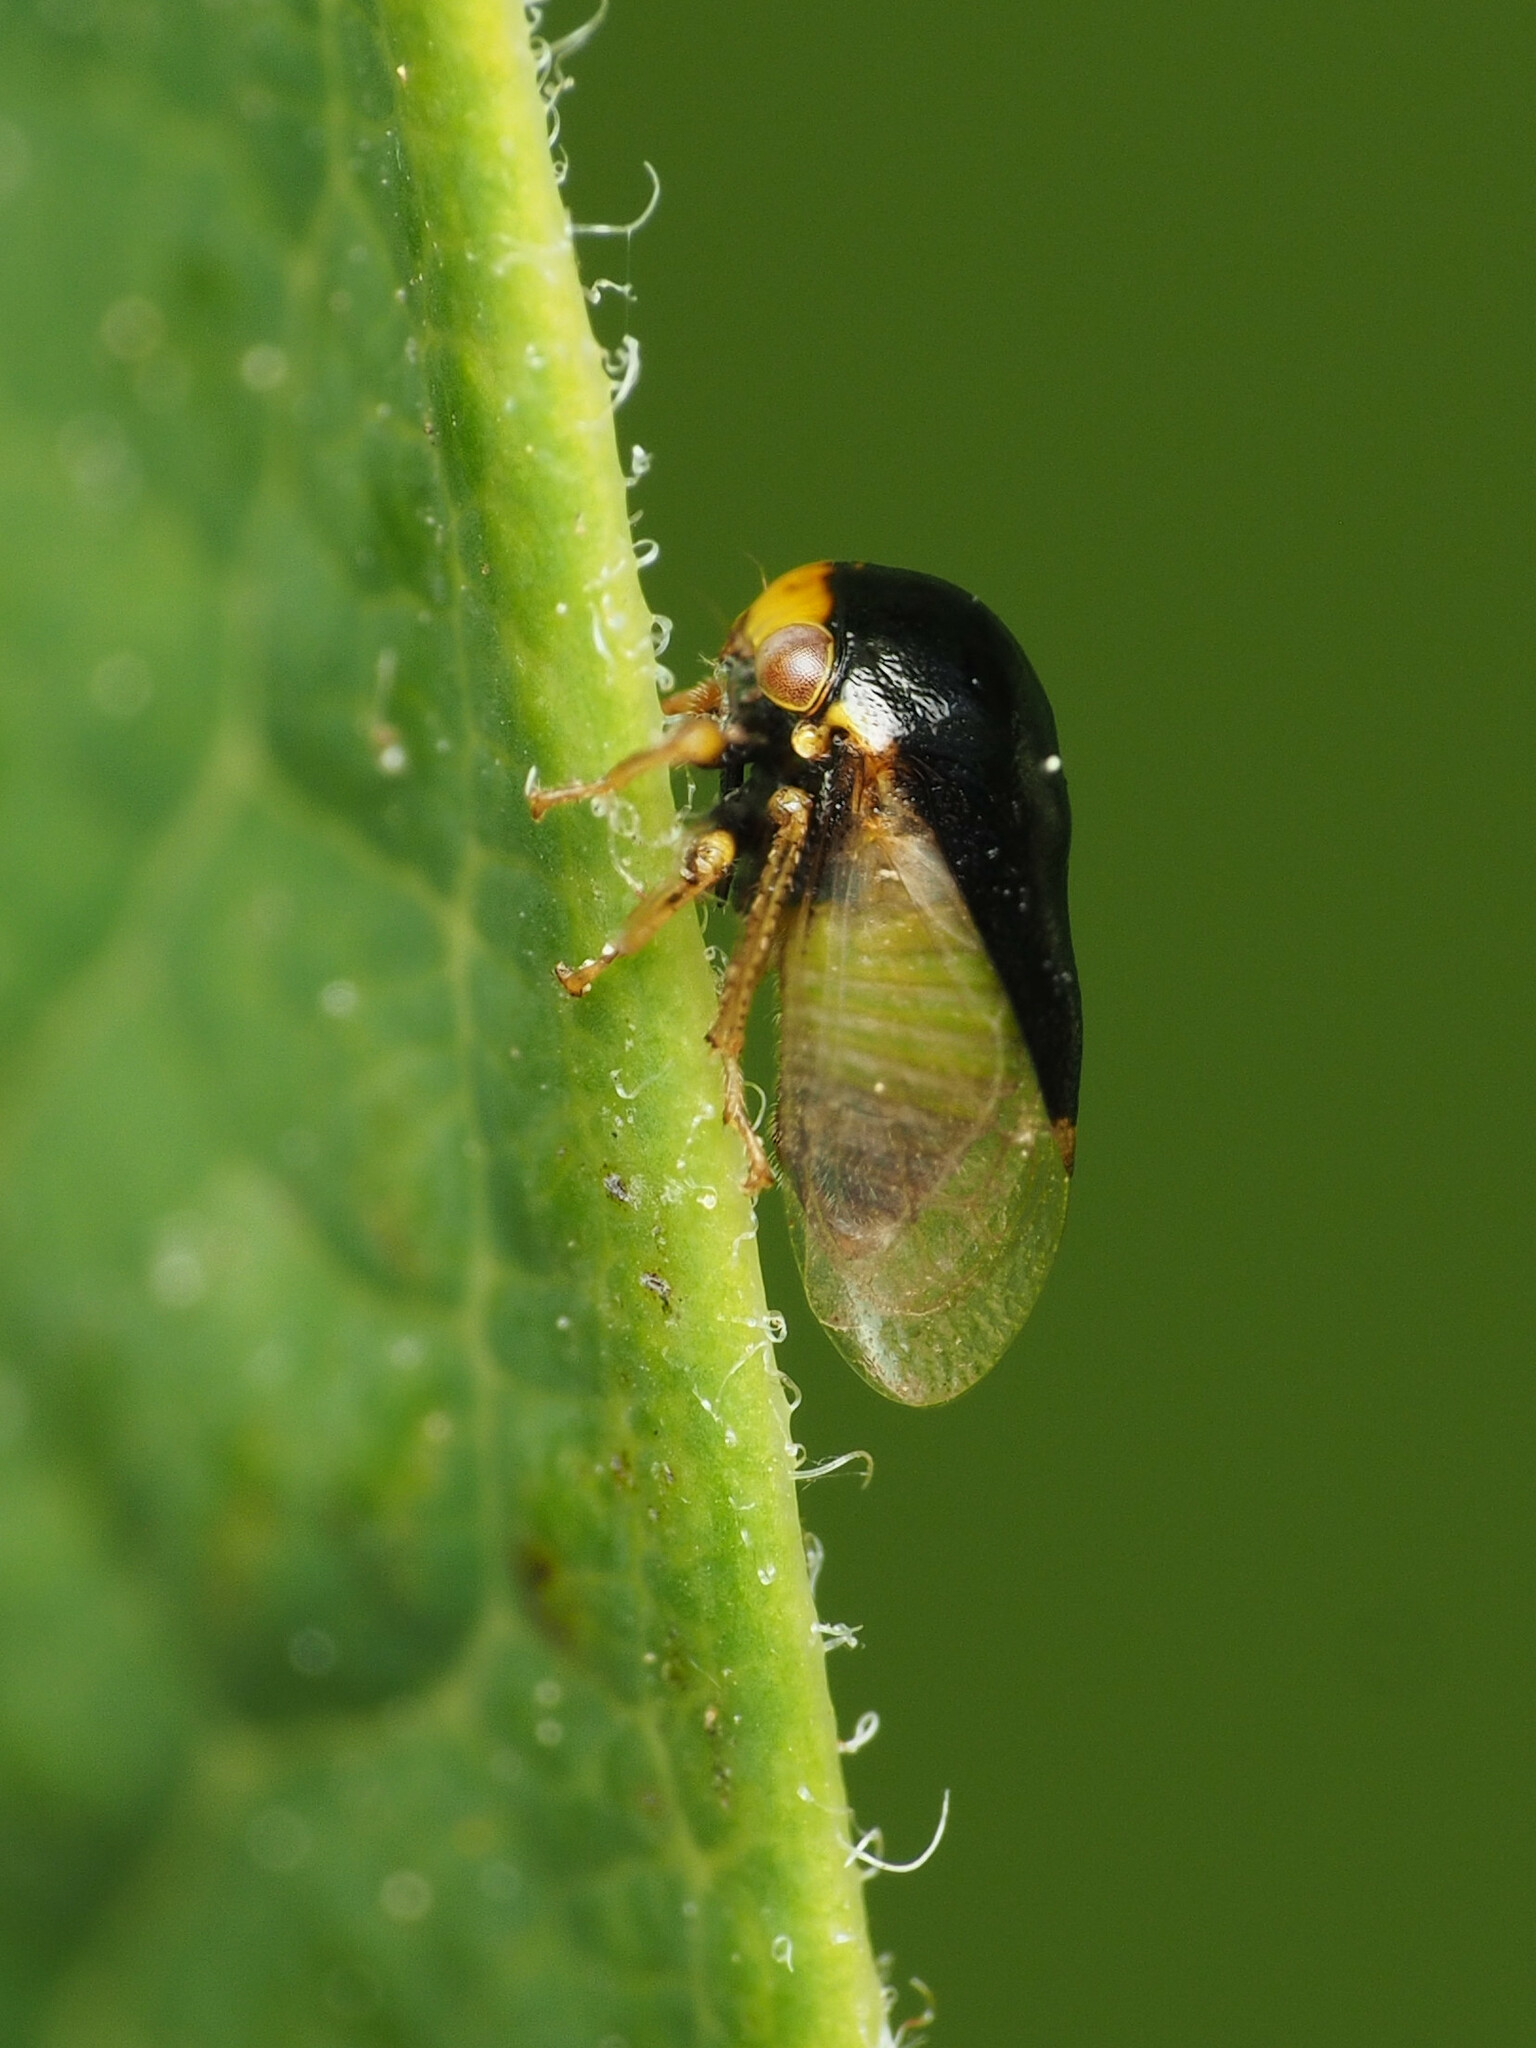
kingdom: Animalia
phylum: Arthropoda
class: Insecta
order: Hemiptera
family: Membracidae
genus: Micrutalis
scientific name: Micrutalis calva
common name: Honeylocust treehopper
